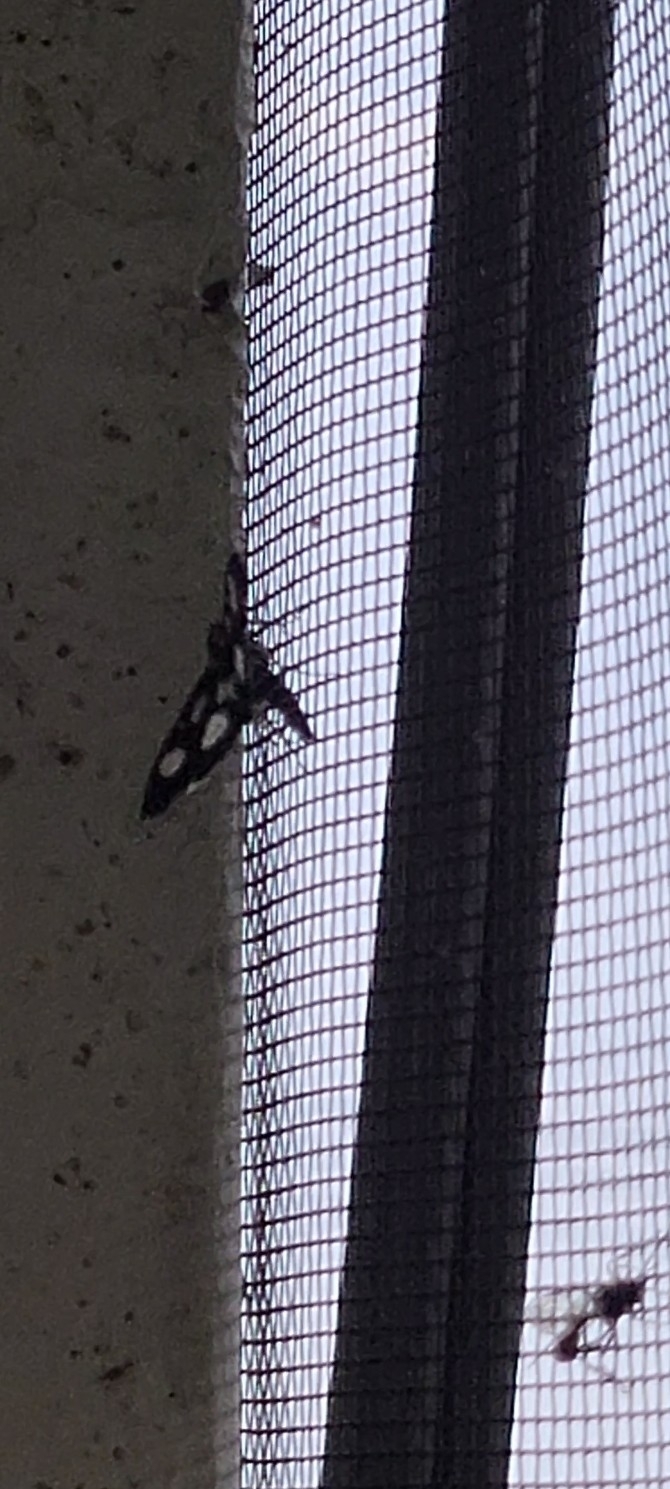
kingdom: Animalia
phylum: Arthropoda
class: Insecta
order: Lepidoptera
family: Crambidae
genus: Anania
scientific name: Anania funebris
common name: White-spotted sable moth
